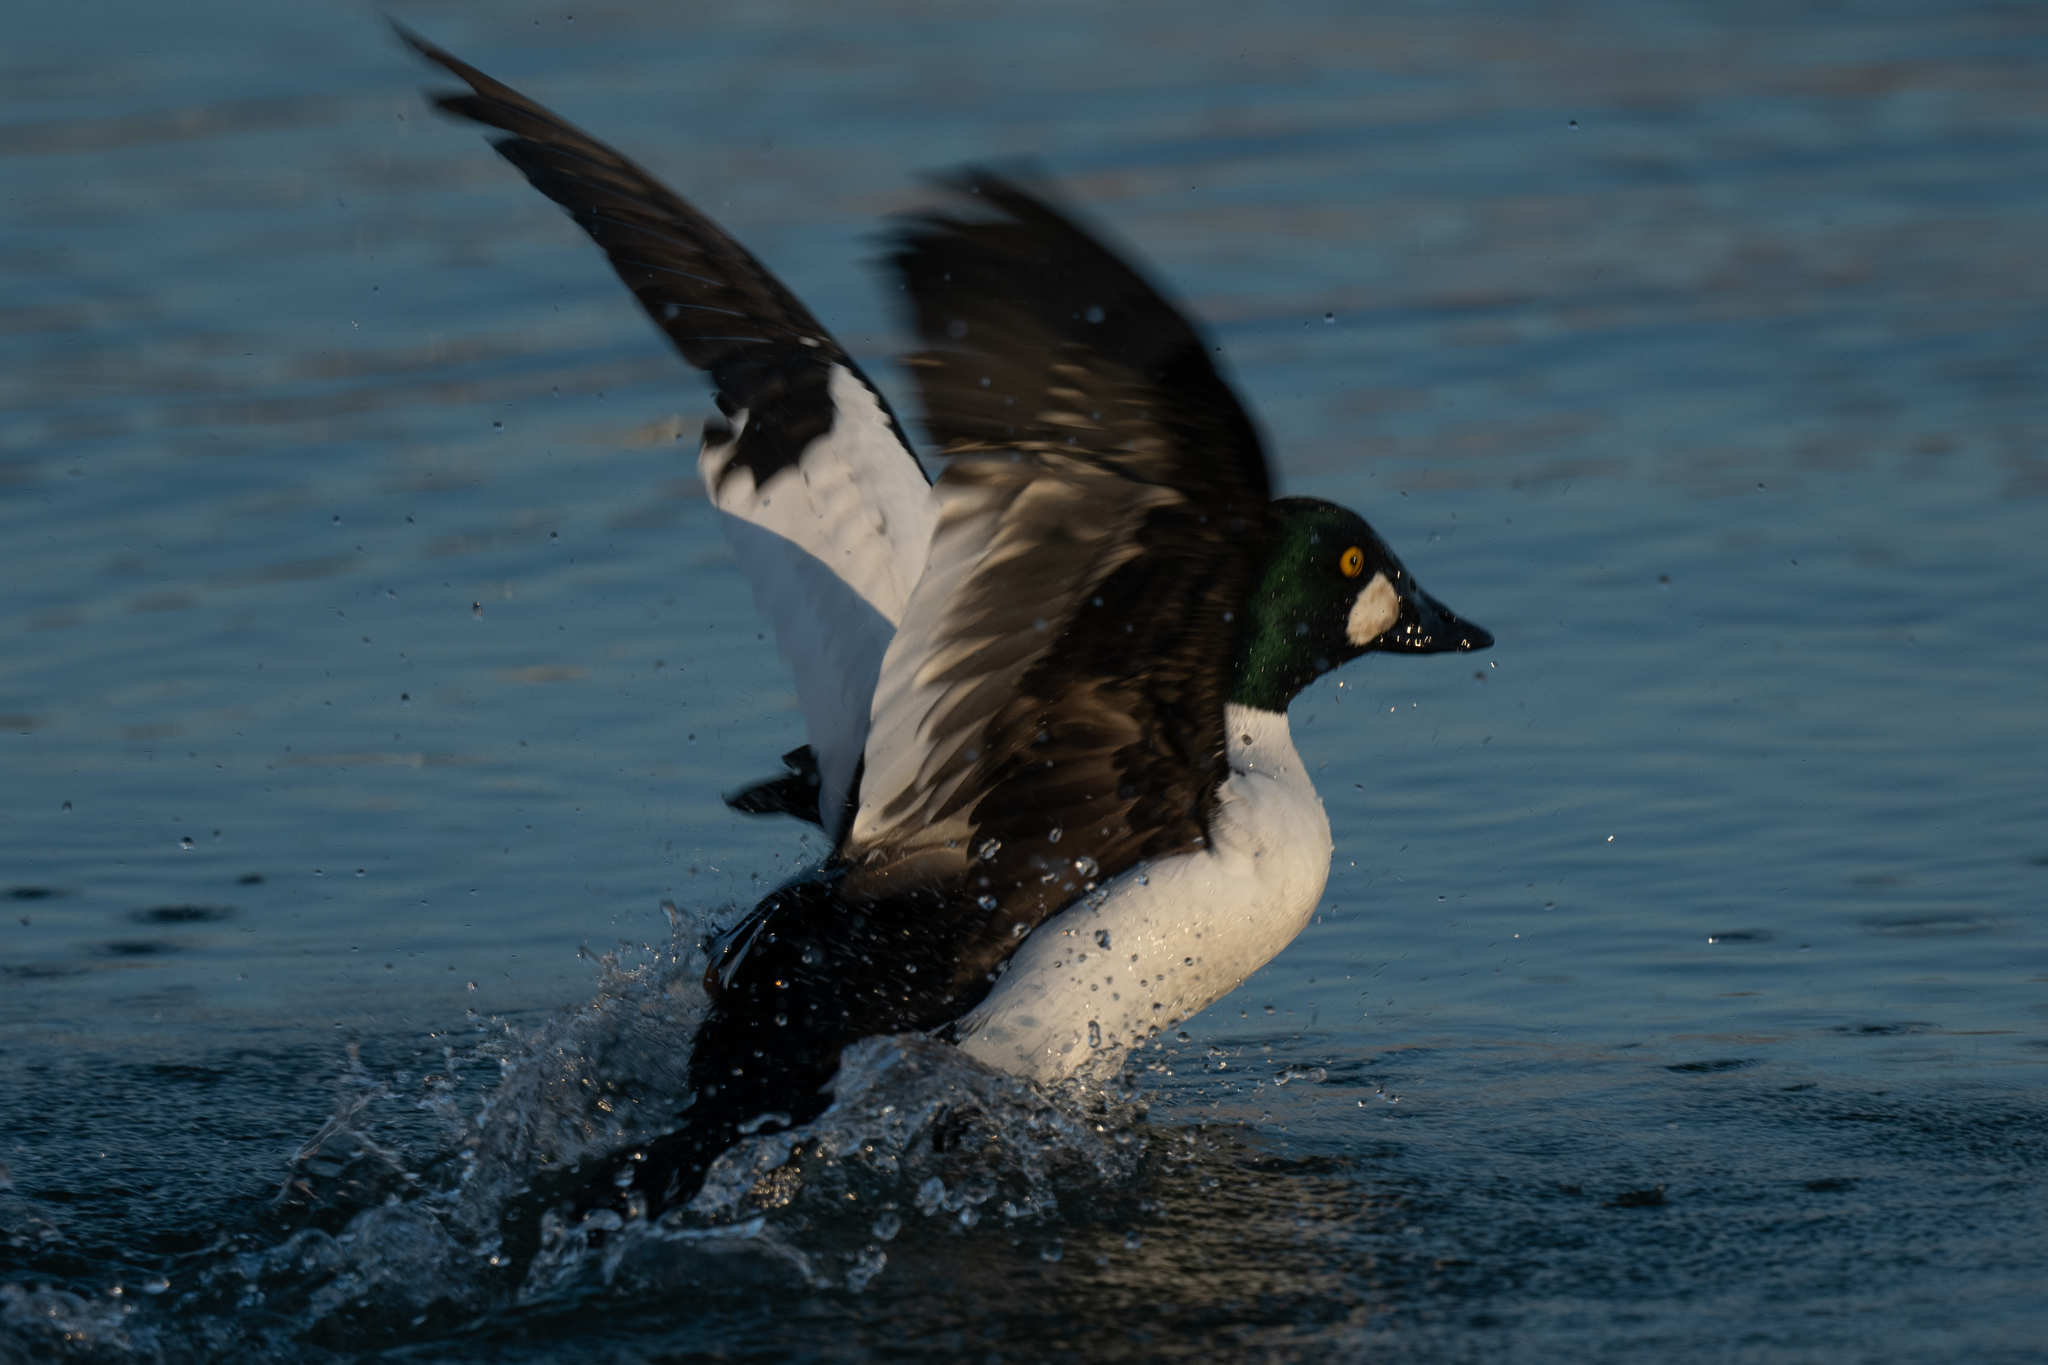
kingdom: Animalia
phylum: Chordata
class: Aves
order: Anseriformes
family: Anatidae
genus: Bucephala
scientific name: Bucephala clangula
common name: Common goldeneye
